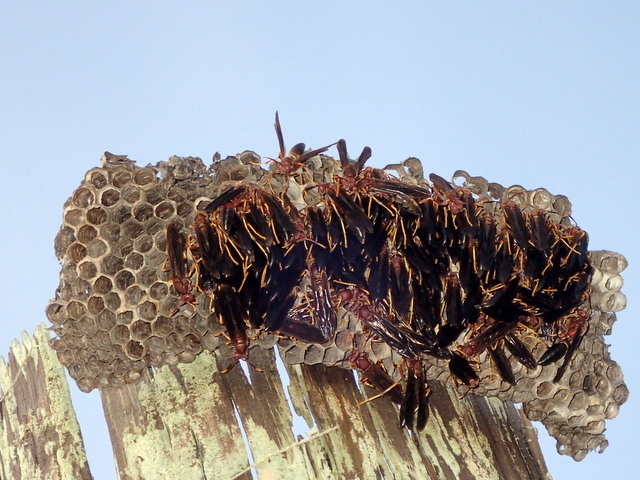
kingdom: Animalia
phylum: Arthropoda
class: Insecta
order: Hymenoptera
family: Eumenidae
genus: Polistes
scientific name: Polistes annularis
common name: Ringed paper wasp
